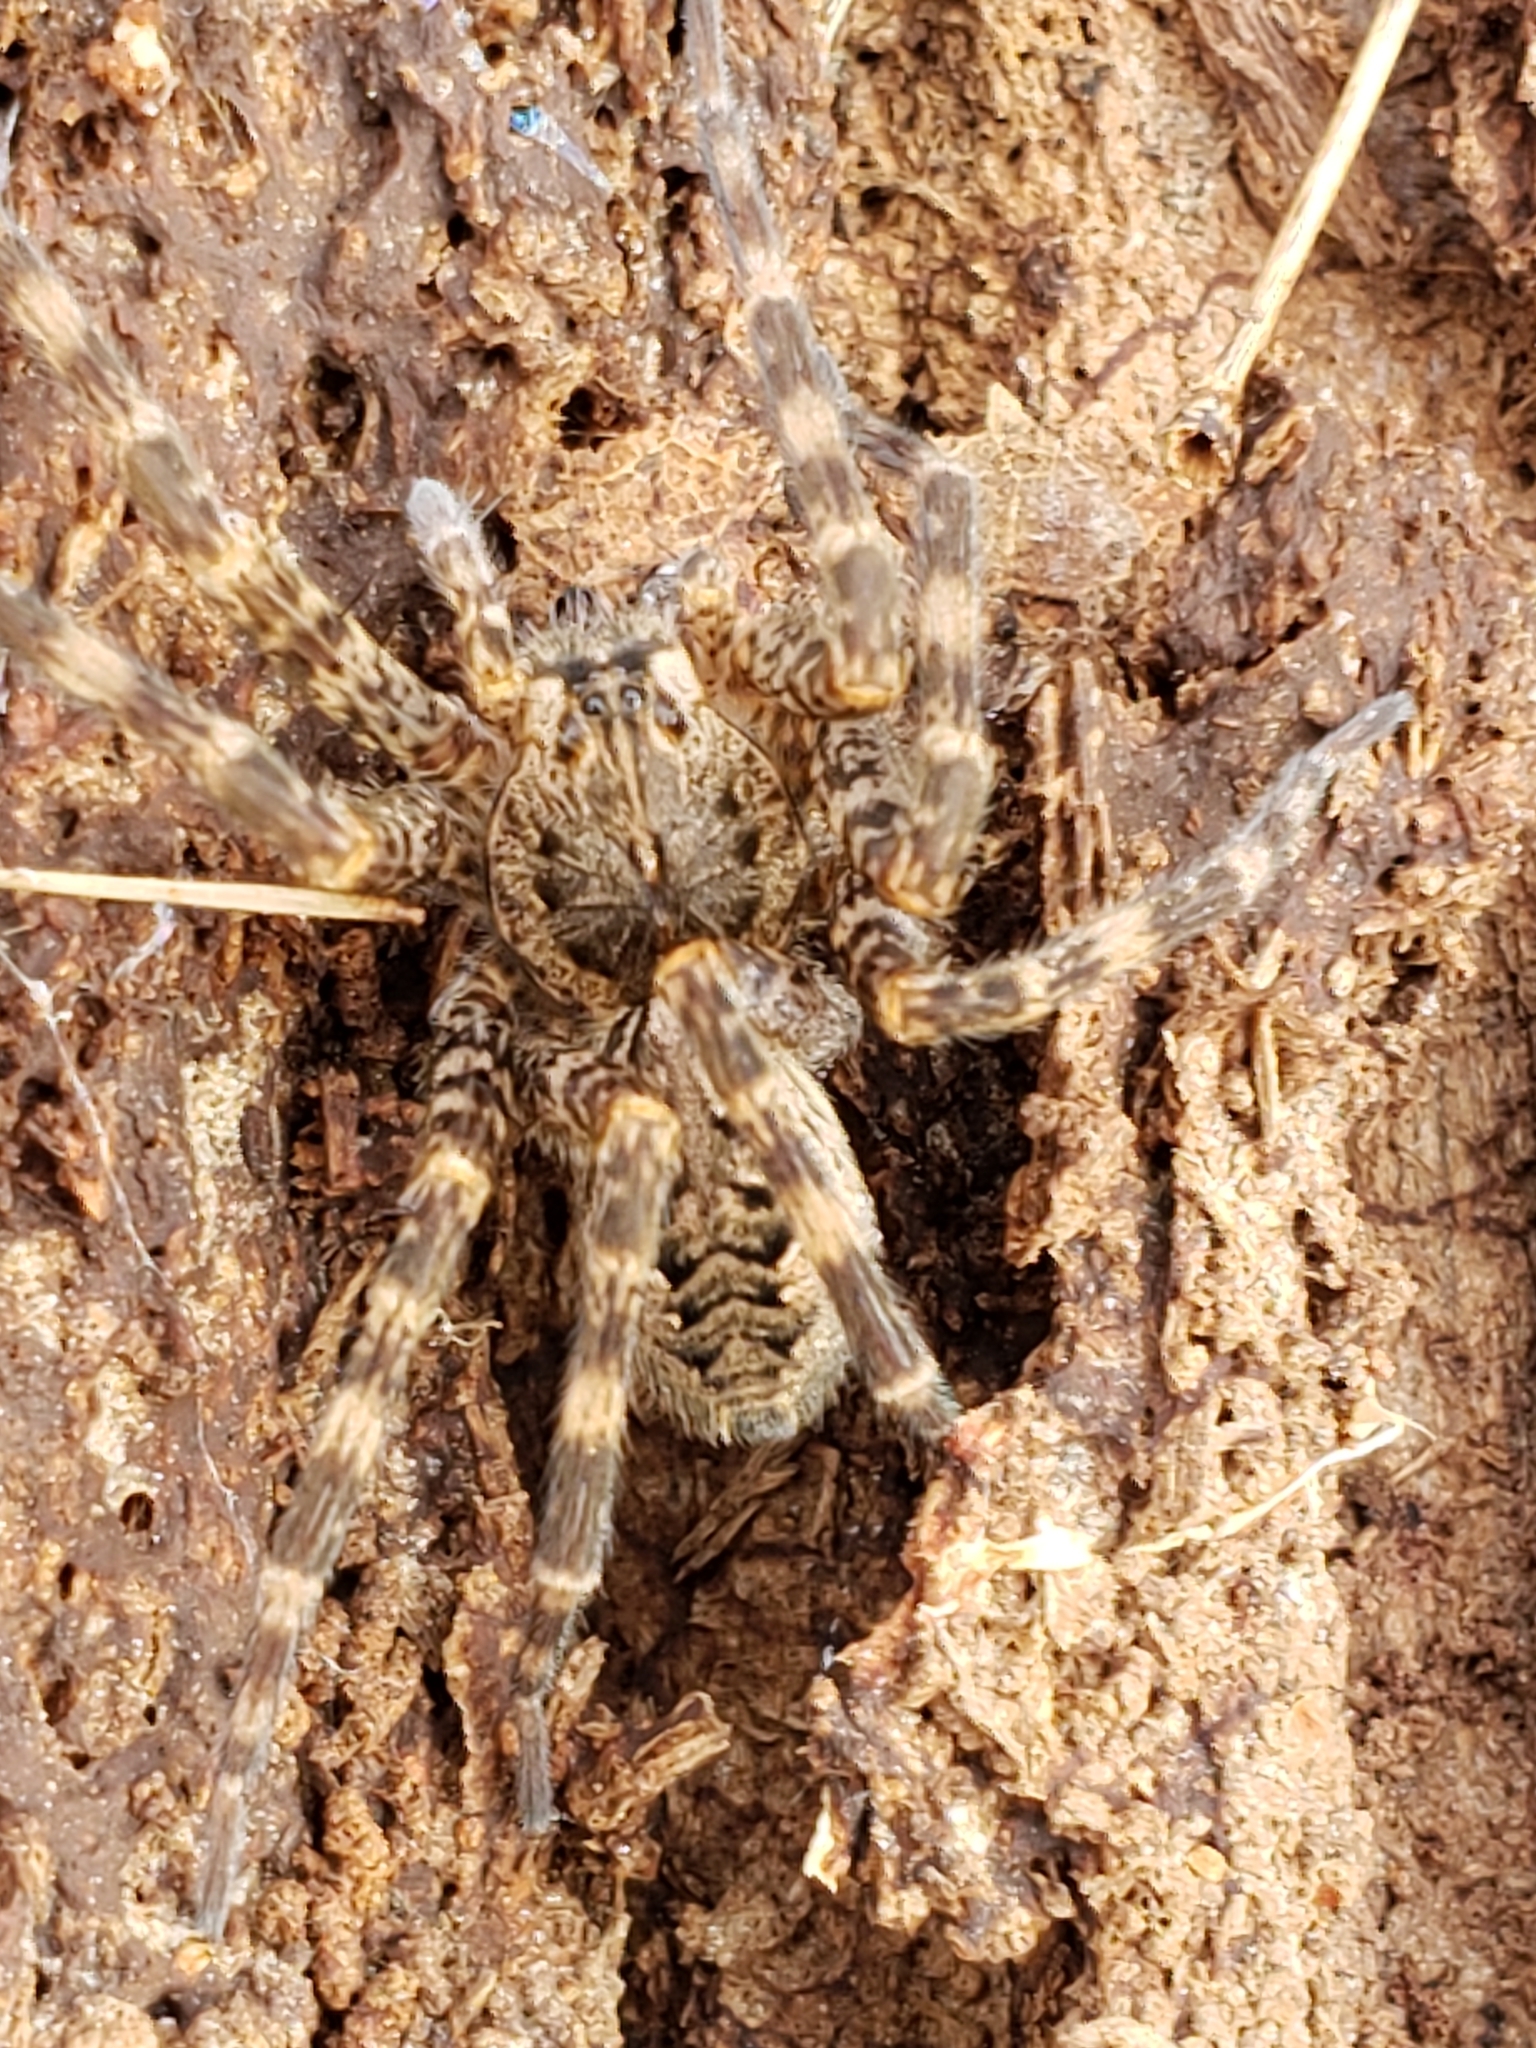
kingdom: Animalia
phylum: Arthropoda
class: Arachnida
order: Araneae
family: Pisauridae
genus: Dolomedes
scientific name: Dolomedes tenebrosus
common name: Dark fishing spider
